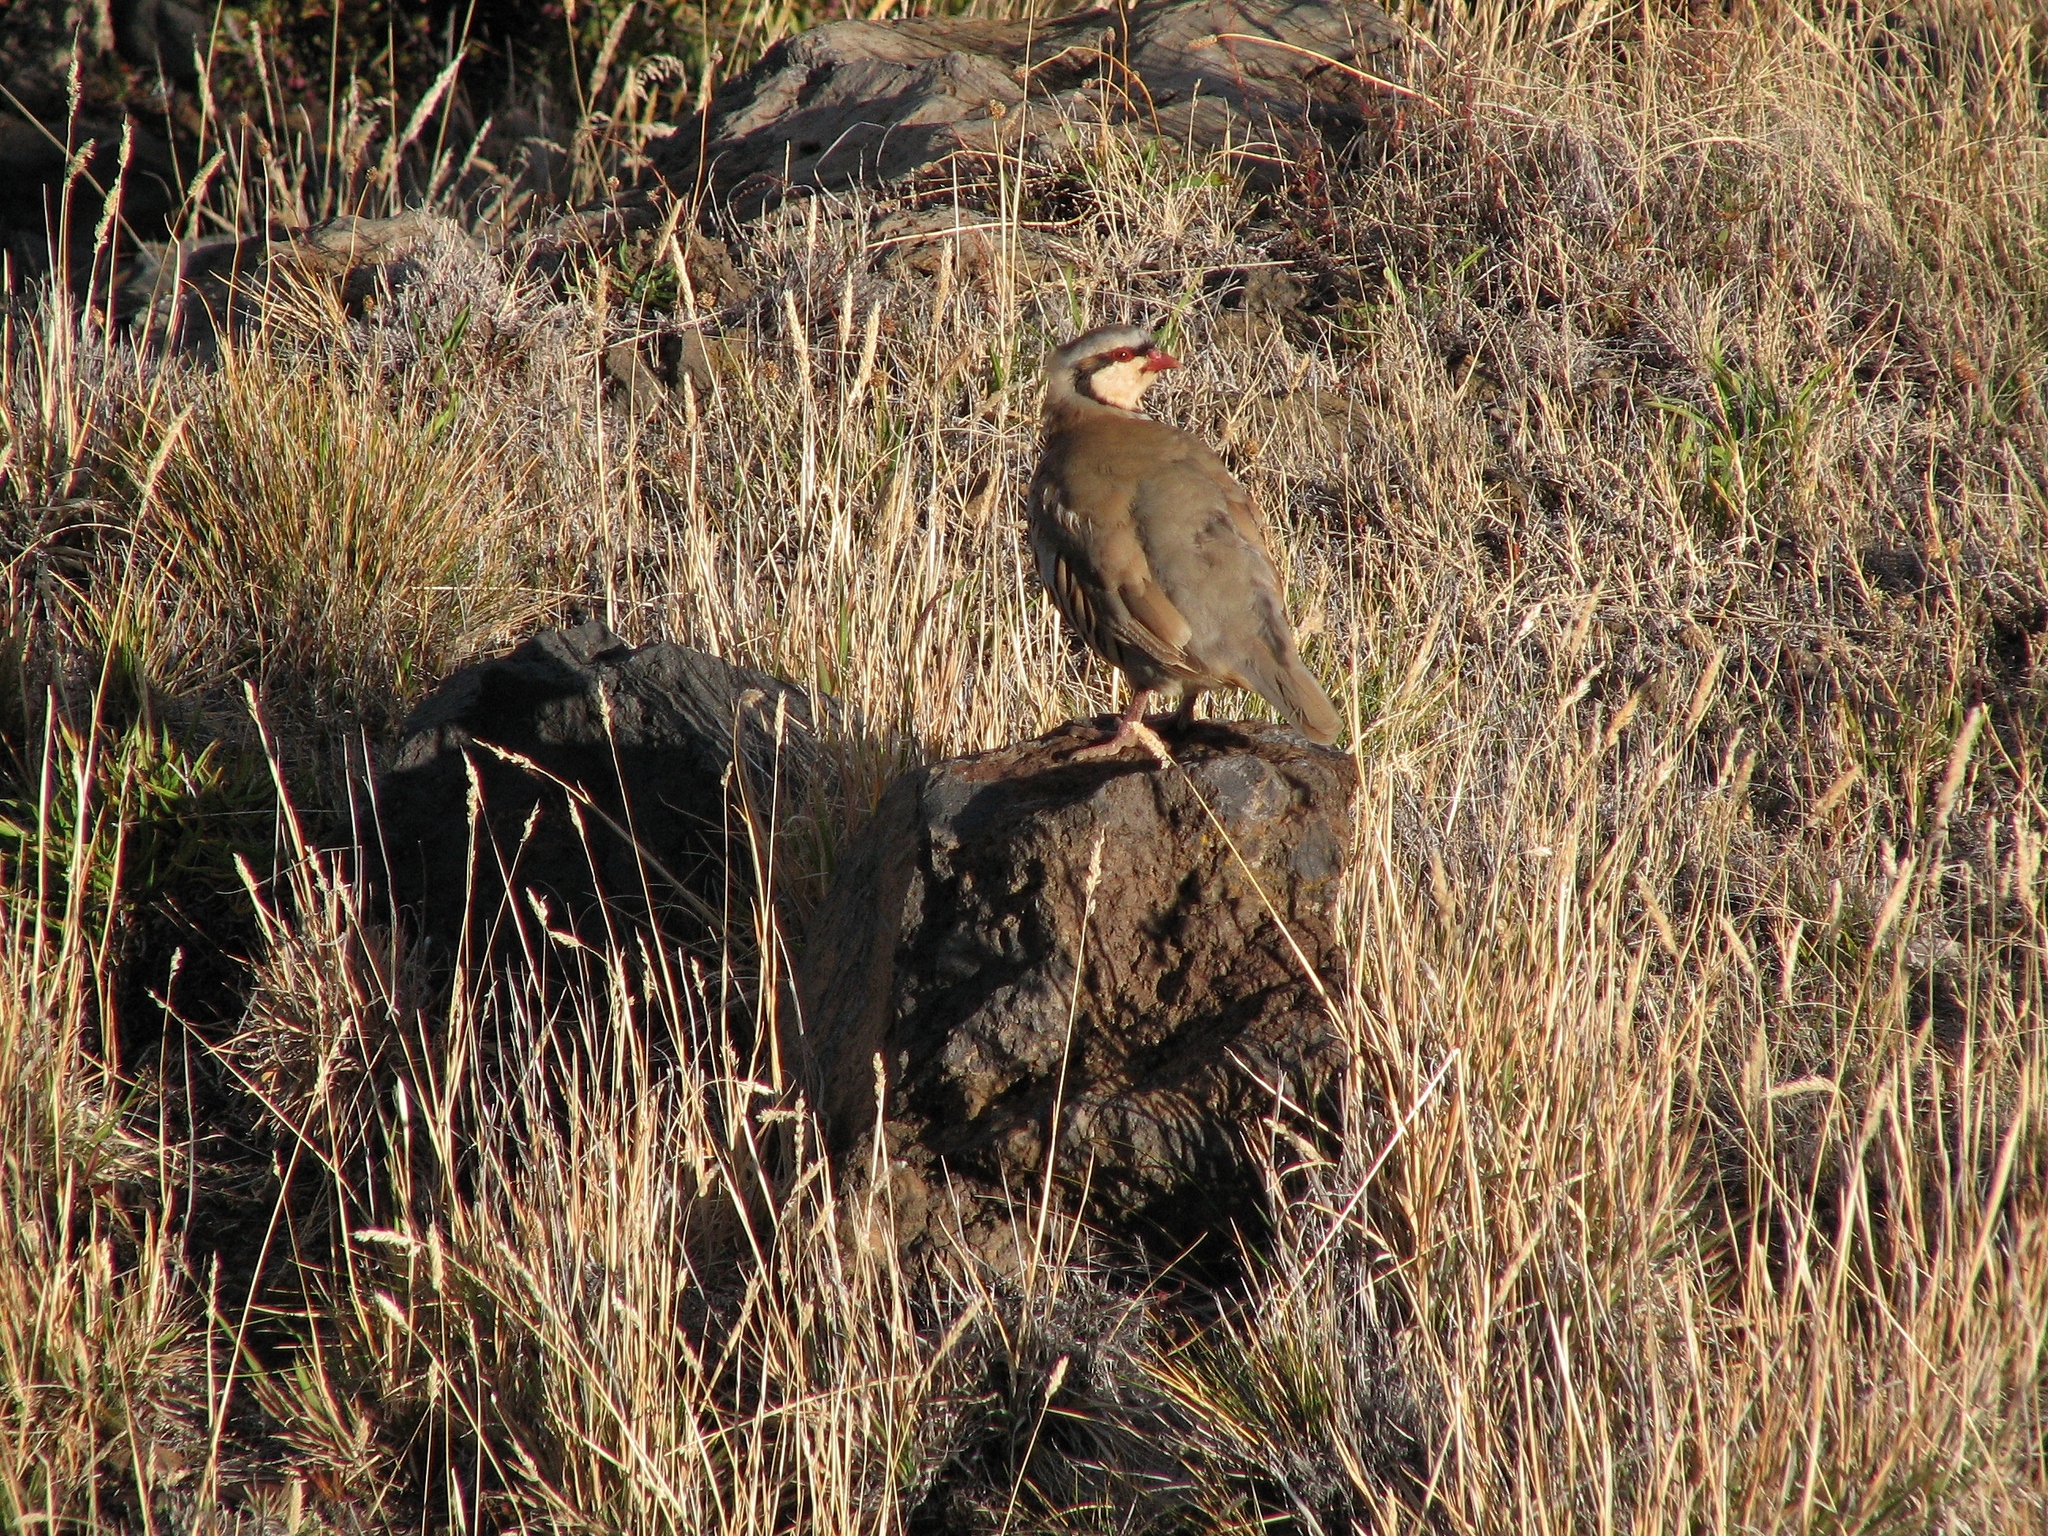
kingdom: Animalia
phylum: Chordata
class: Aves
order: Galliformes
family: Phasianidae
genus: Alectoris
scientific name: Alectoris chukar
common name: Chukar
